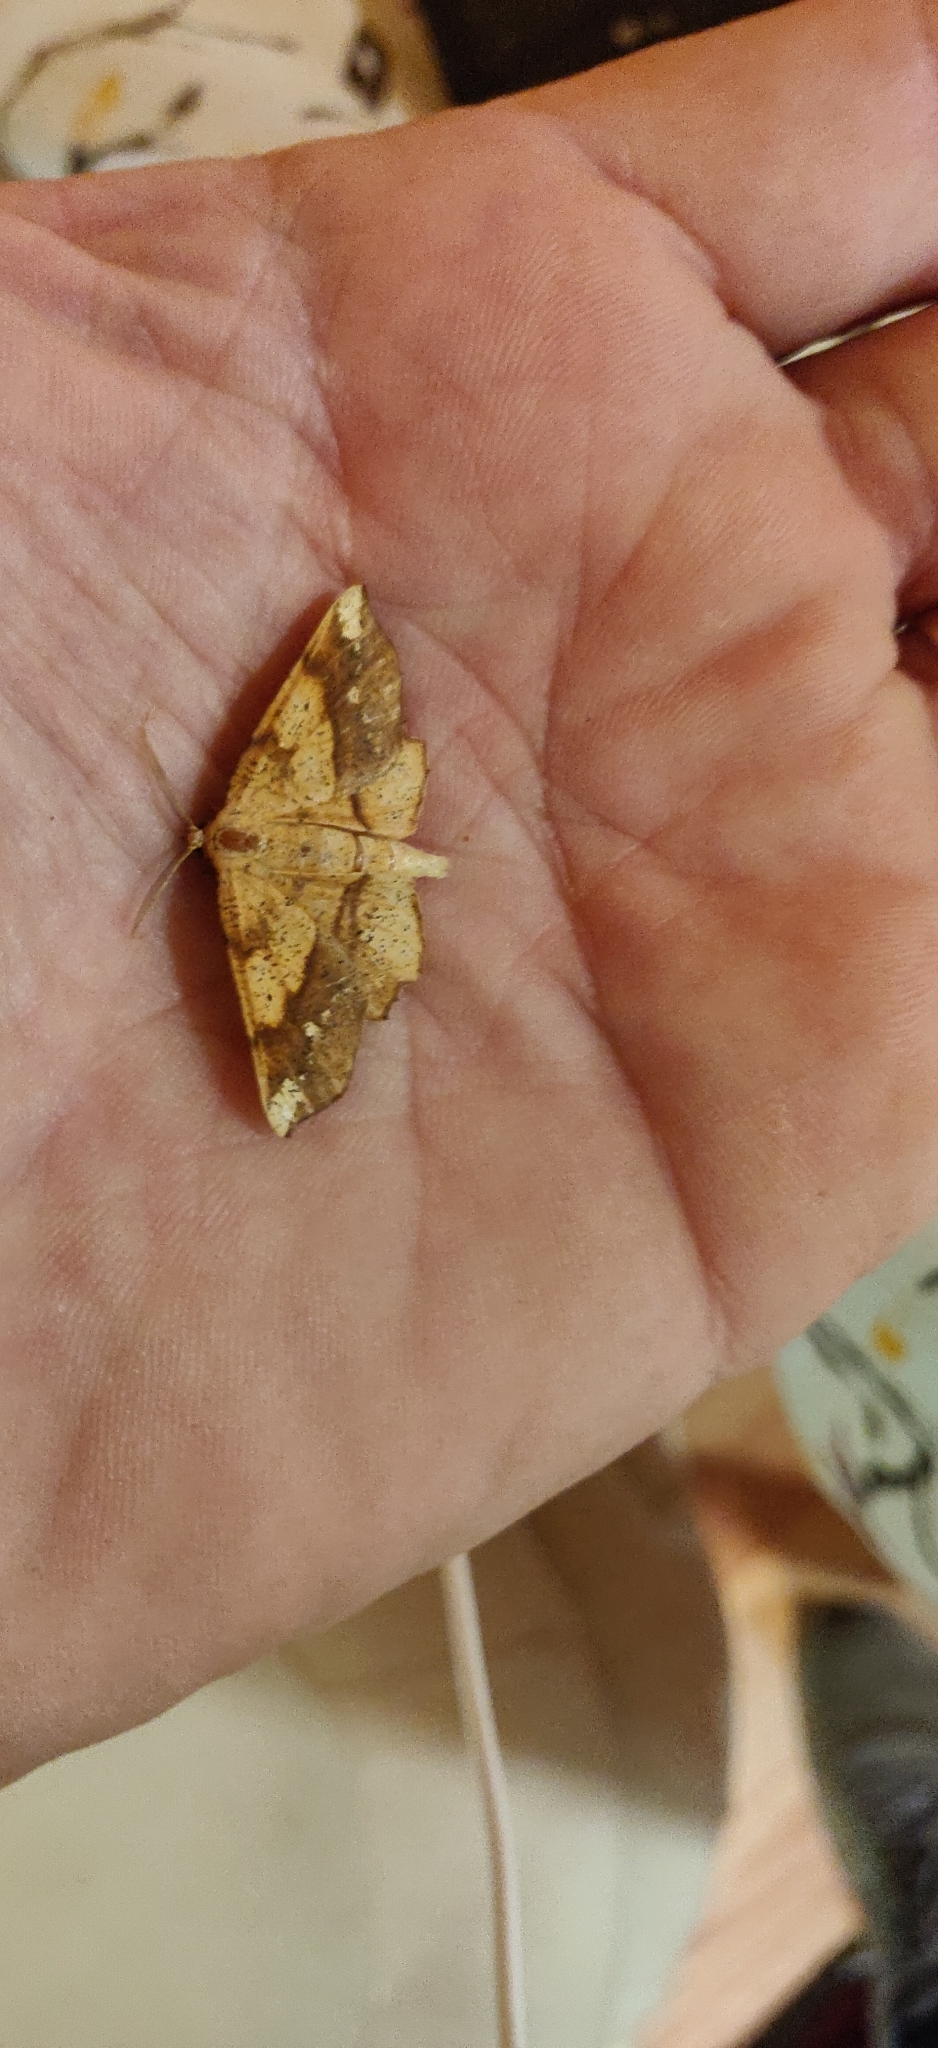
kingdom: Animalia
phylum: Arthropoda
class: Insecta
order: Lepidoptera
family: Geometridae
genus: Euchlaena
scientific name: Euchlaena amoenaria
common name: Deep yellow euchlaena
